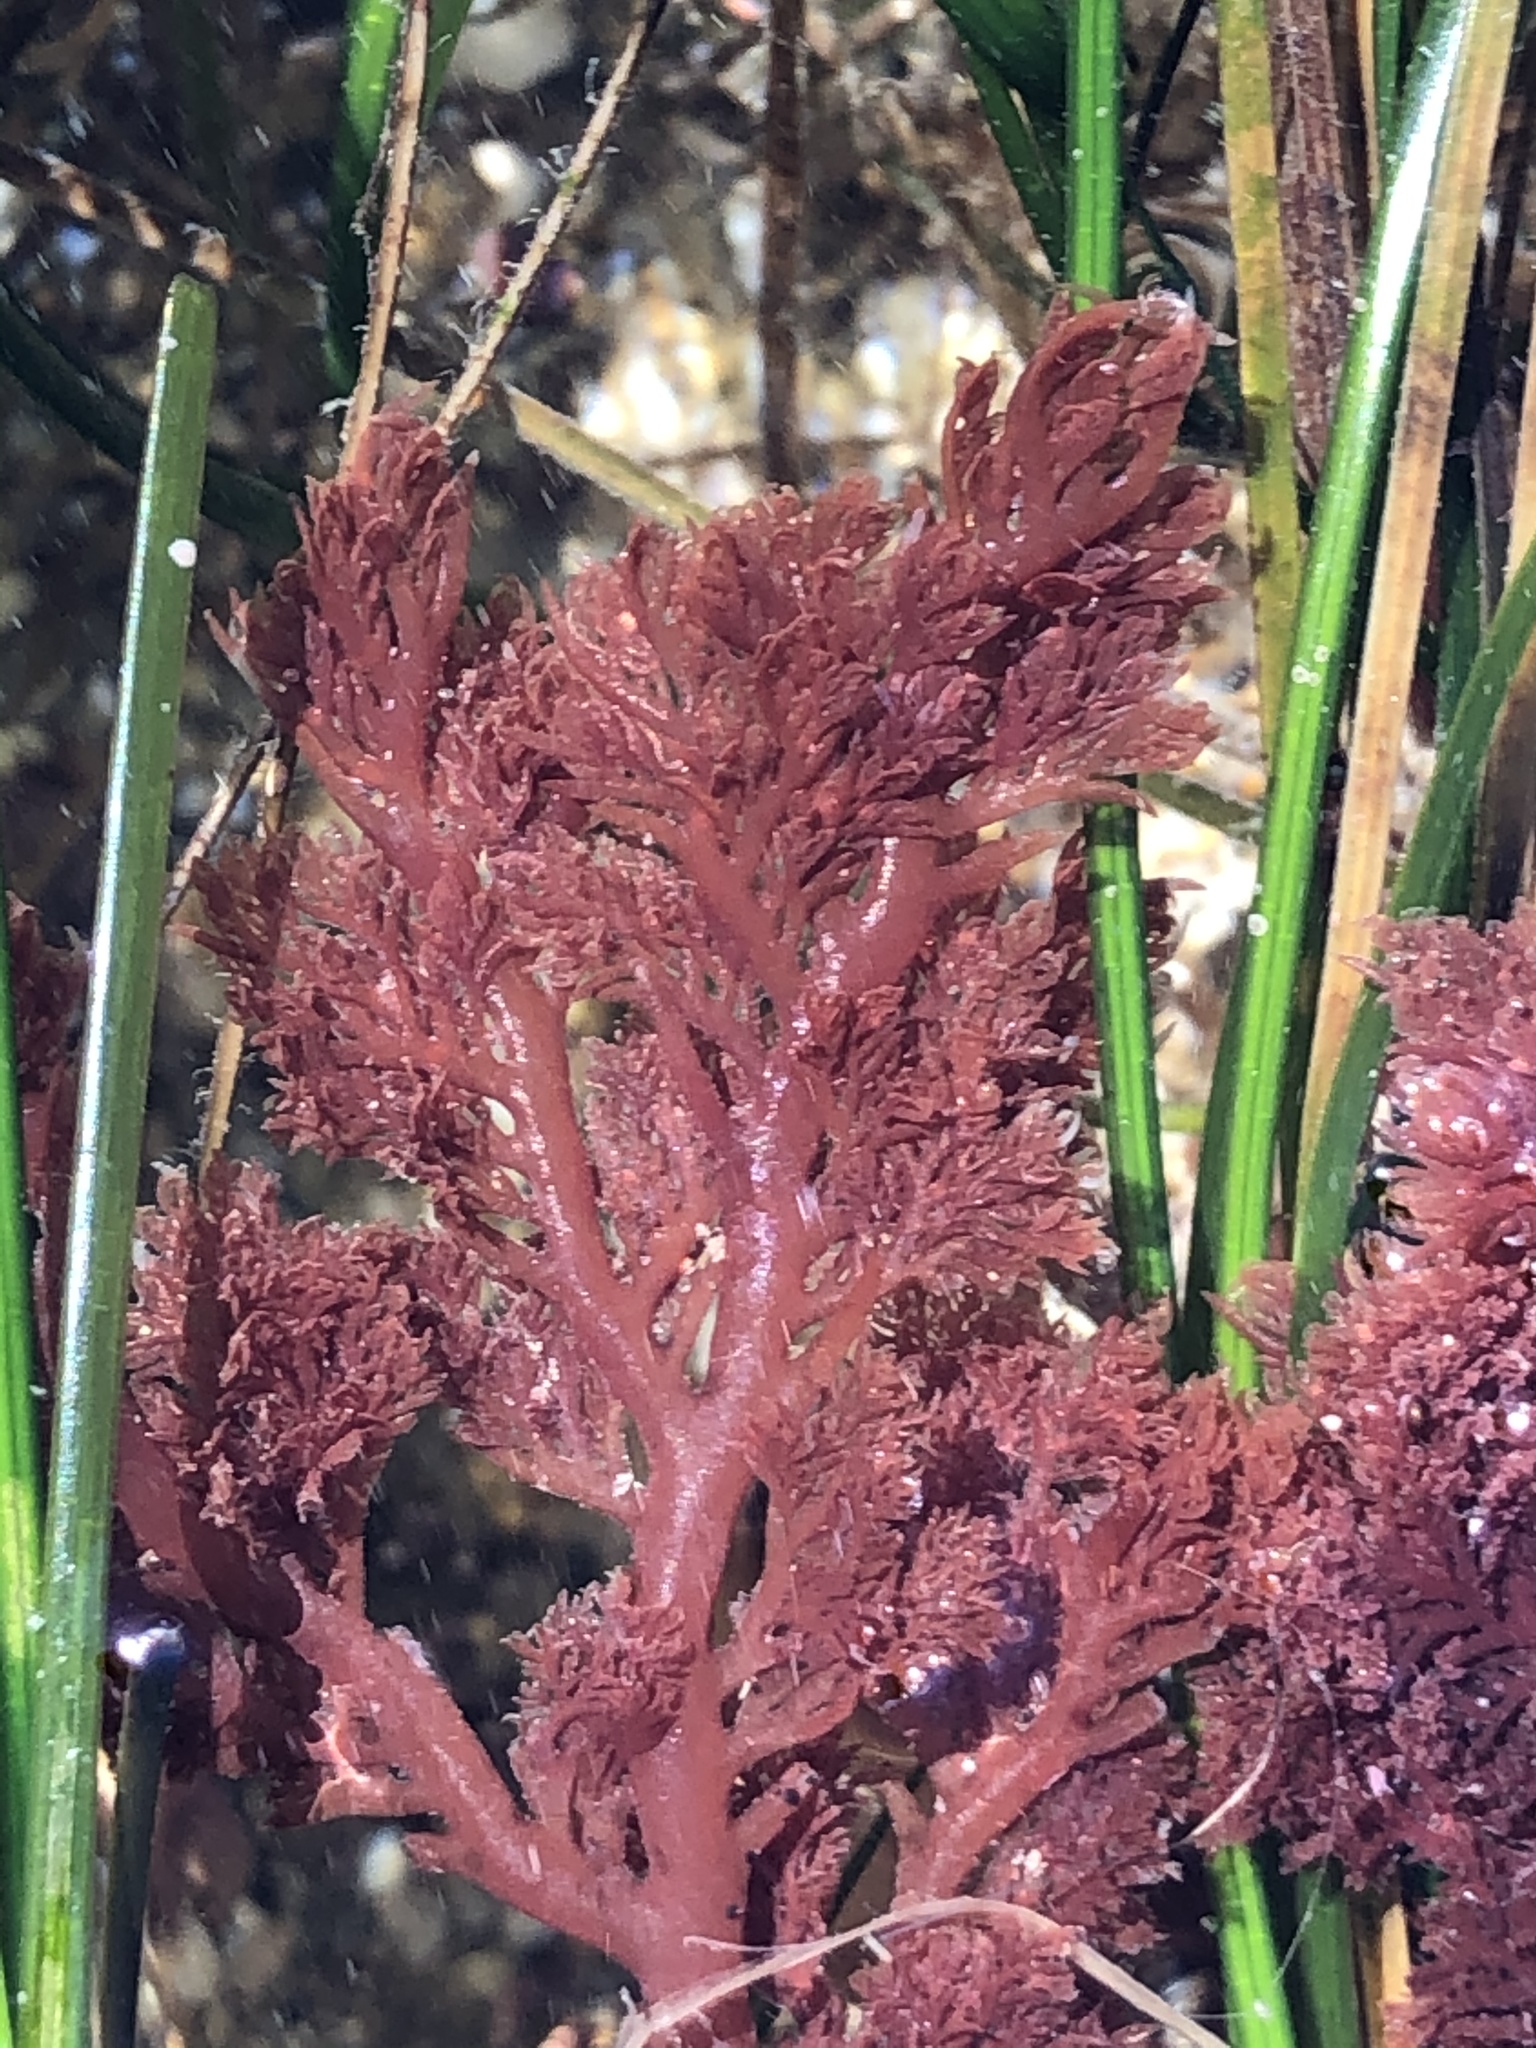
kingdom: Plantae
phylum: Rhodophyta
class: Florideophyceae
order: Plocamiales
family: Plocamiaceae
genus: Plocamium
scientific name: Plocamium cartilagineum
